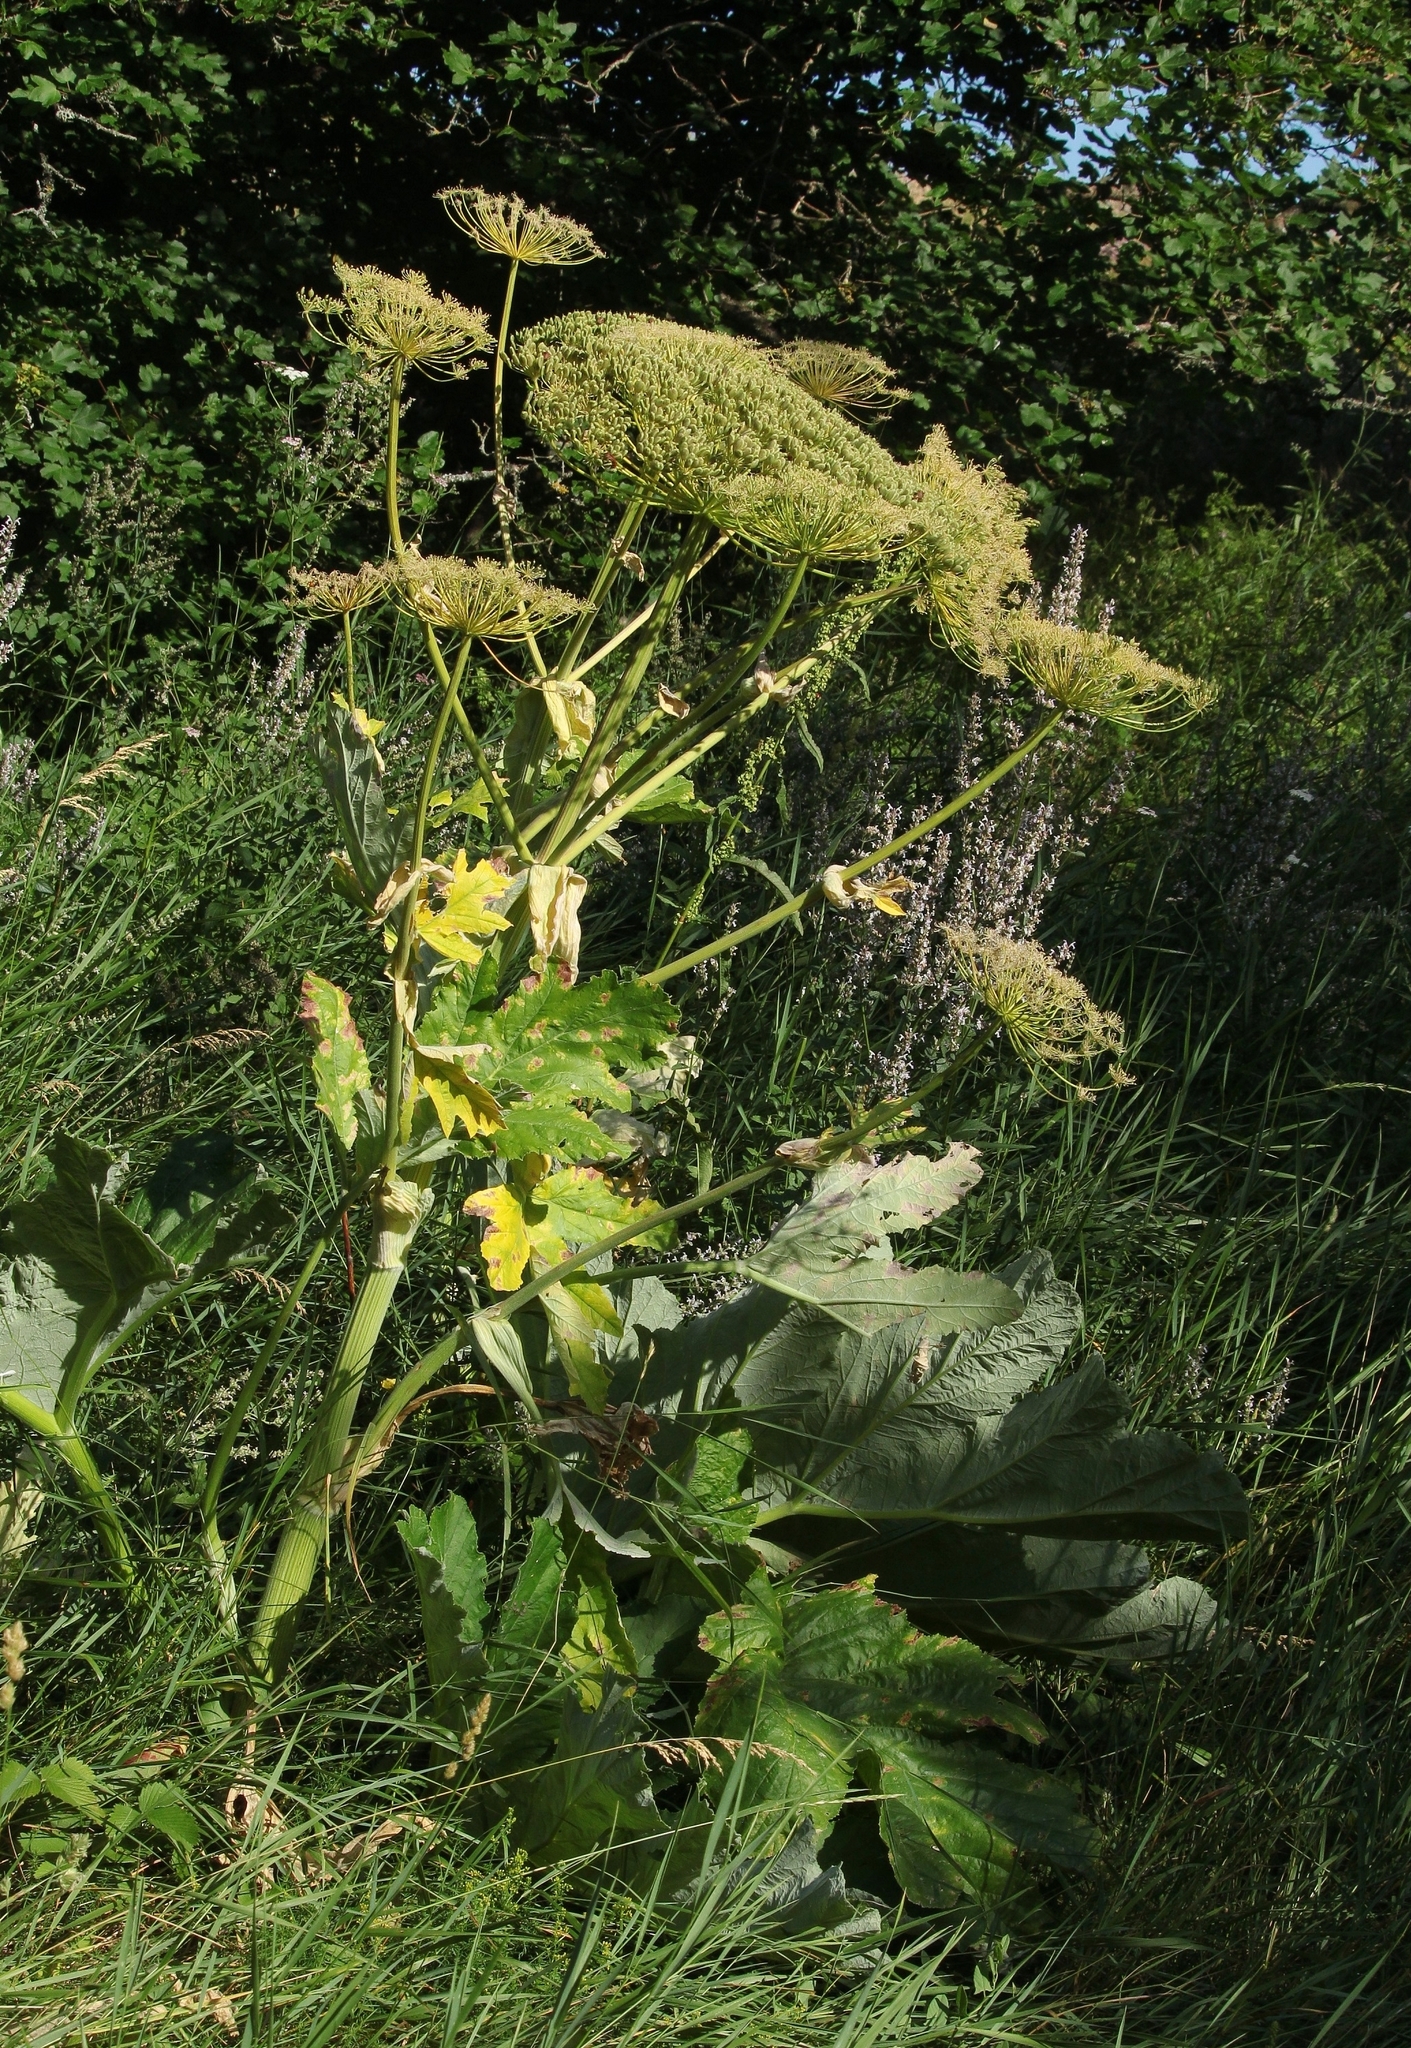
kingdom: Plantae
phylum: Tracheophyta
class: Magnoliopsida
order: Apiales
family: Apiaceae
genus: Heracleum
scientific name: Heracleum stevenii
